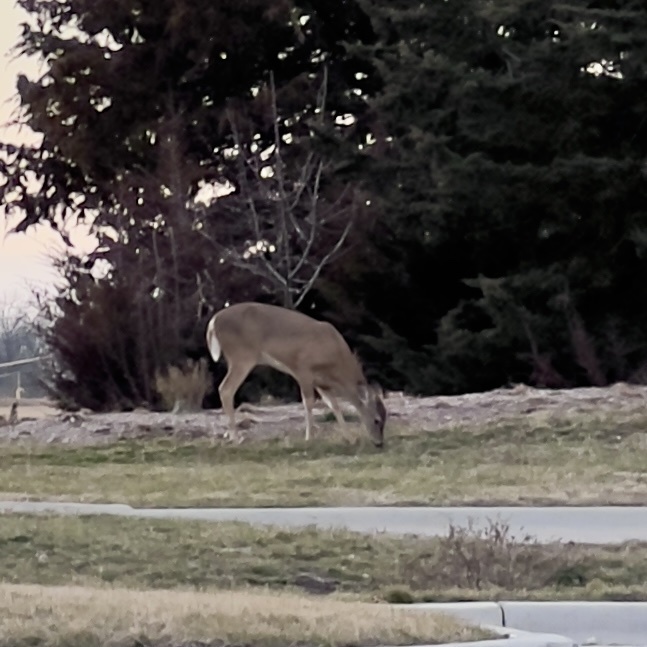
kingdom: Animalia
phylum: Chordata
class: Mammalia
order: Artiodactyla
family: Cervidae
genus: Odocoileus
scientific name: Odocoileus virginianus
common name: White-tailed deer
